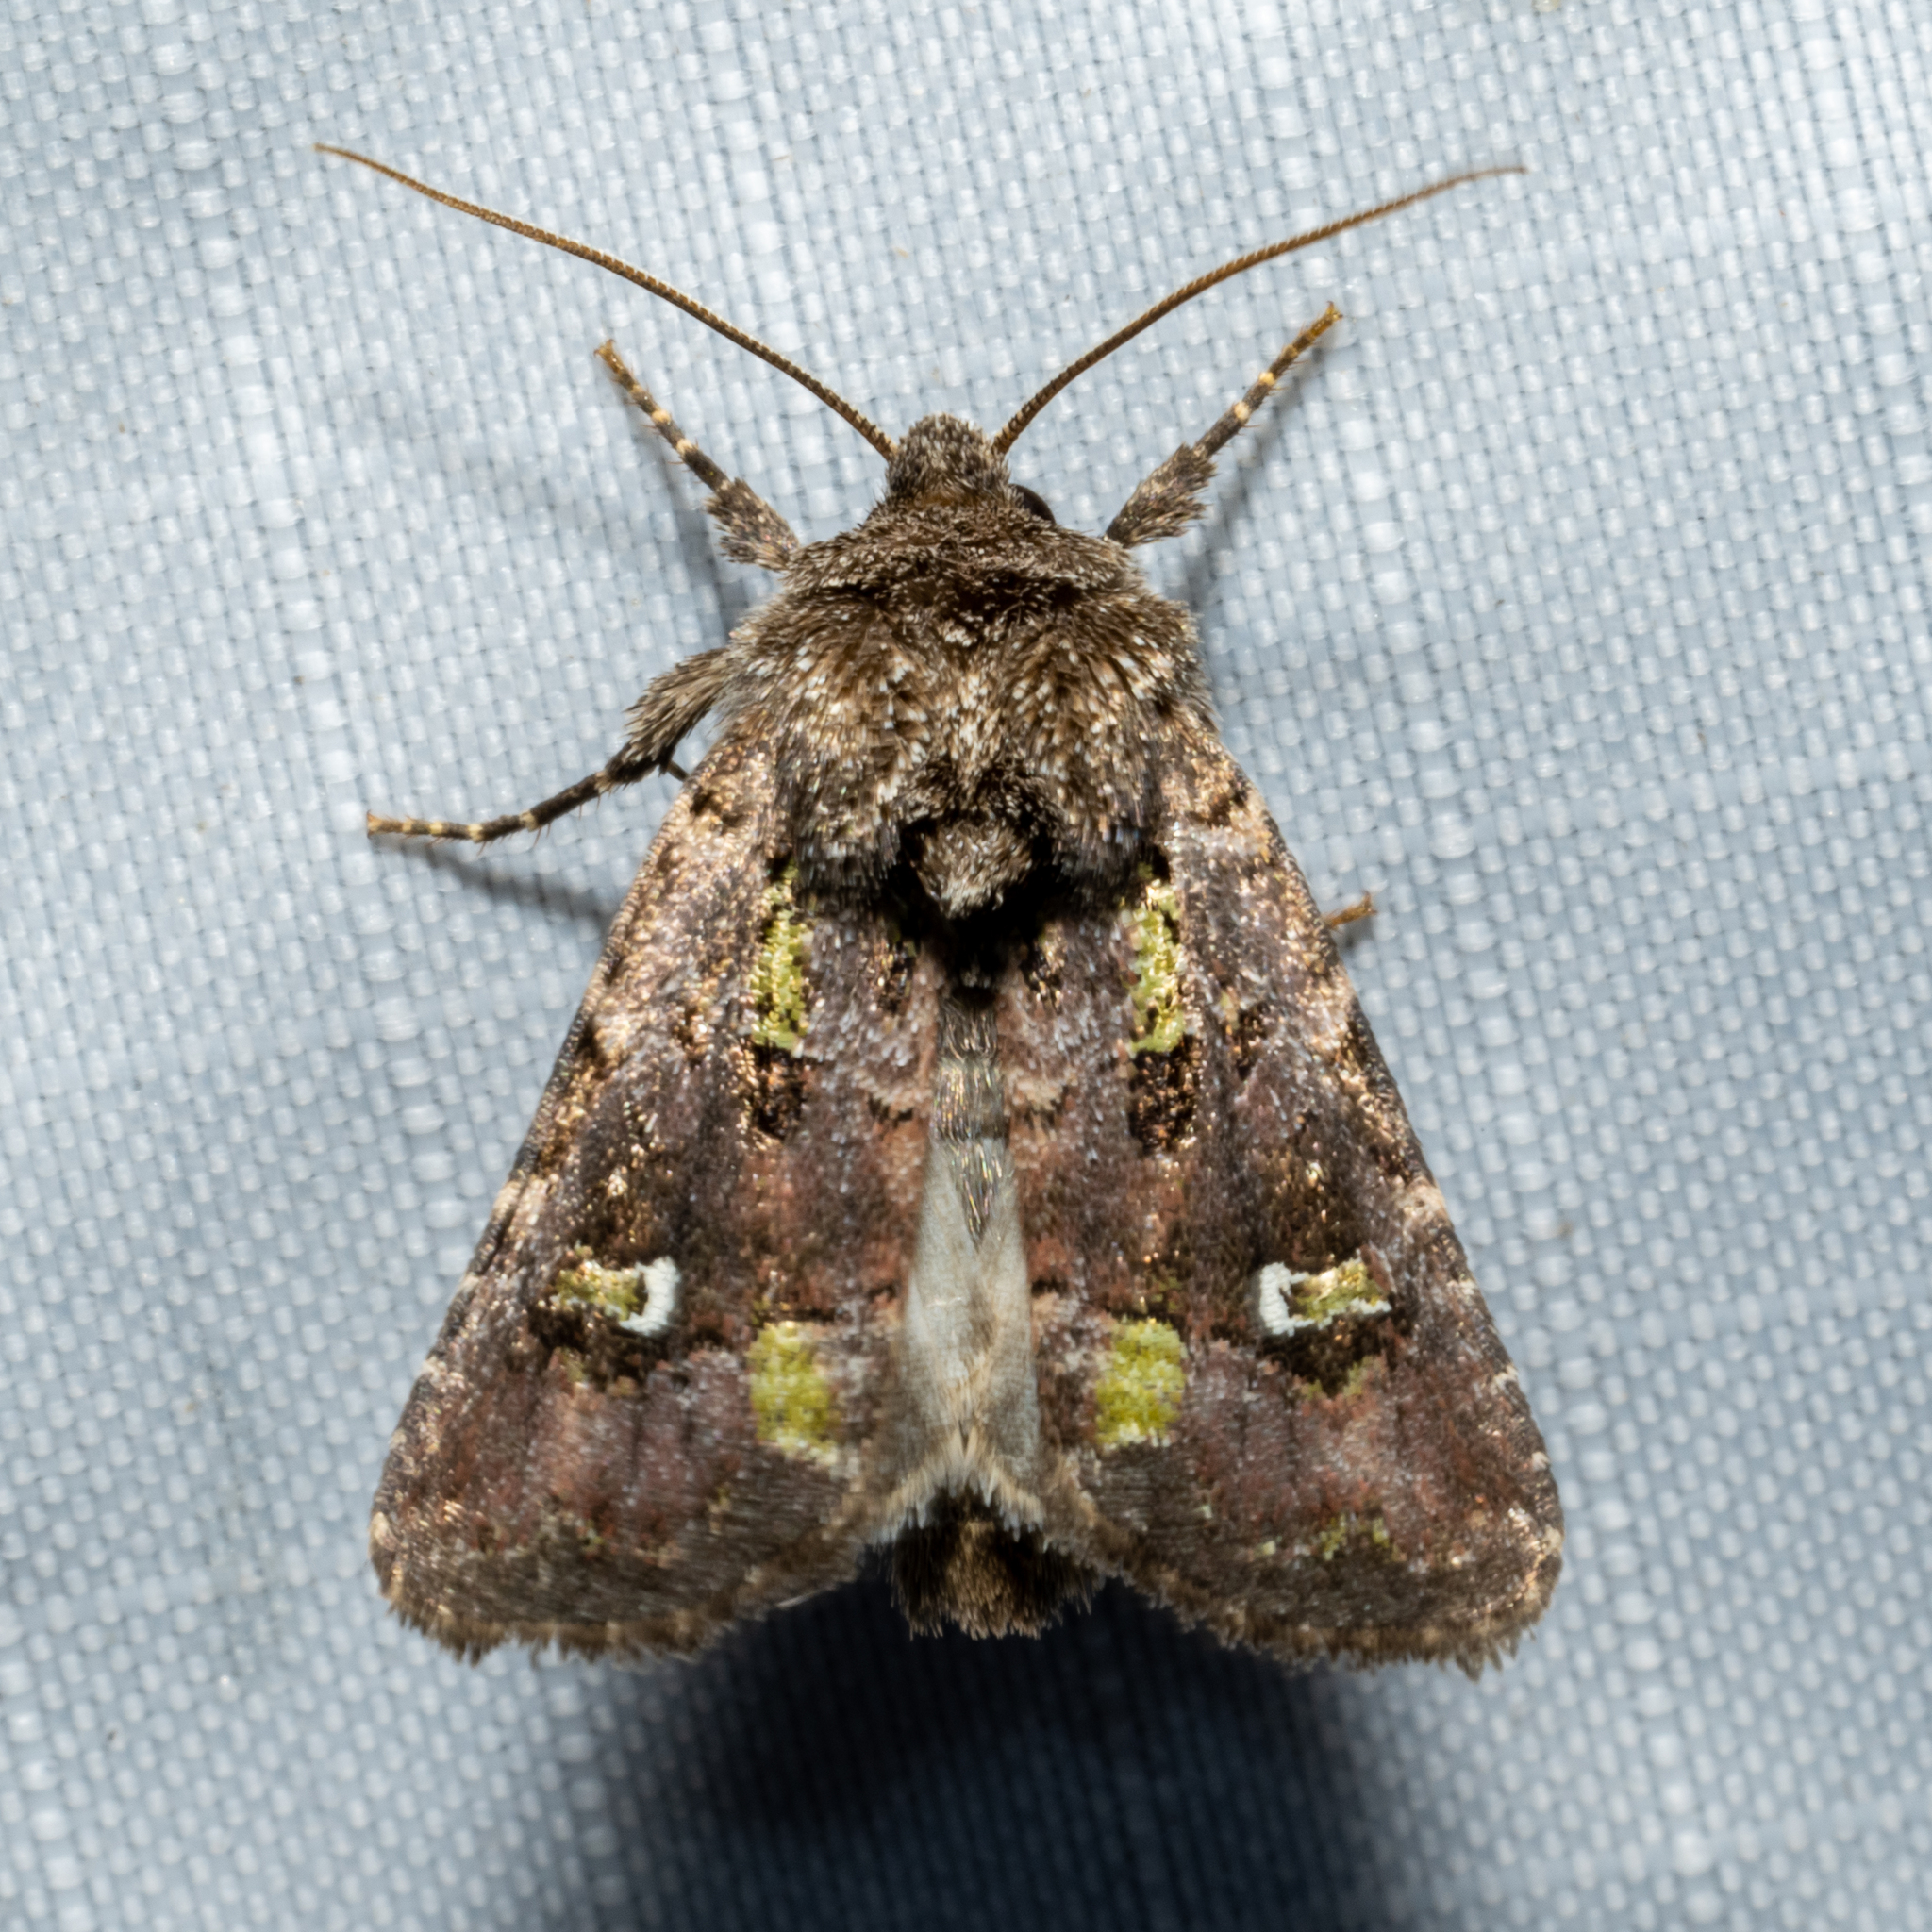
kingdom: Animalia
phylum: Arthropoda
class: Insecta
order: Lepidoptera
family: Noctuidae
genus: Lacinipolia
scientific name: Lacinipolia renigera
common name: Kidney-spotted minor
